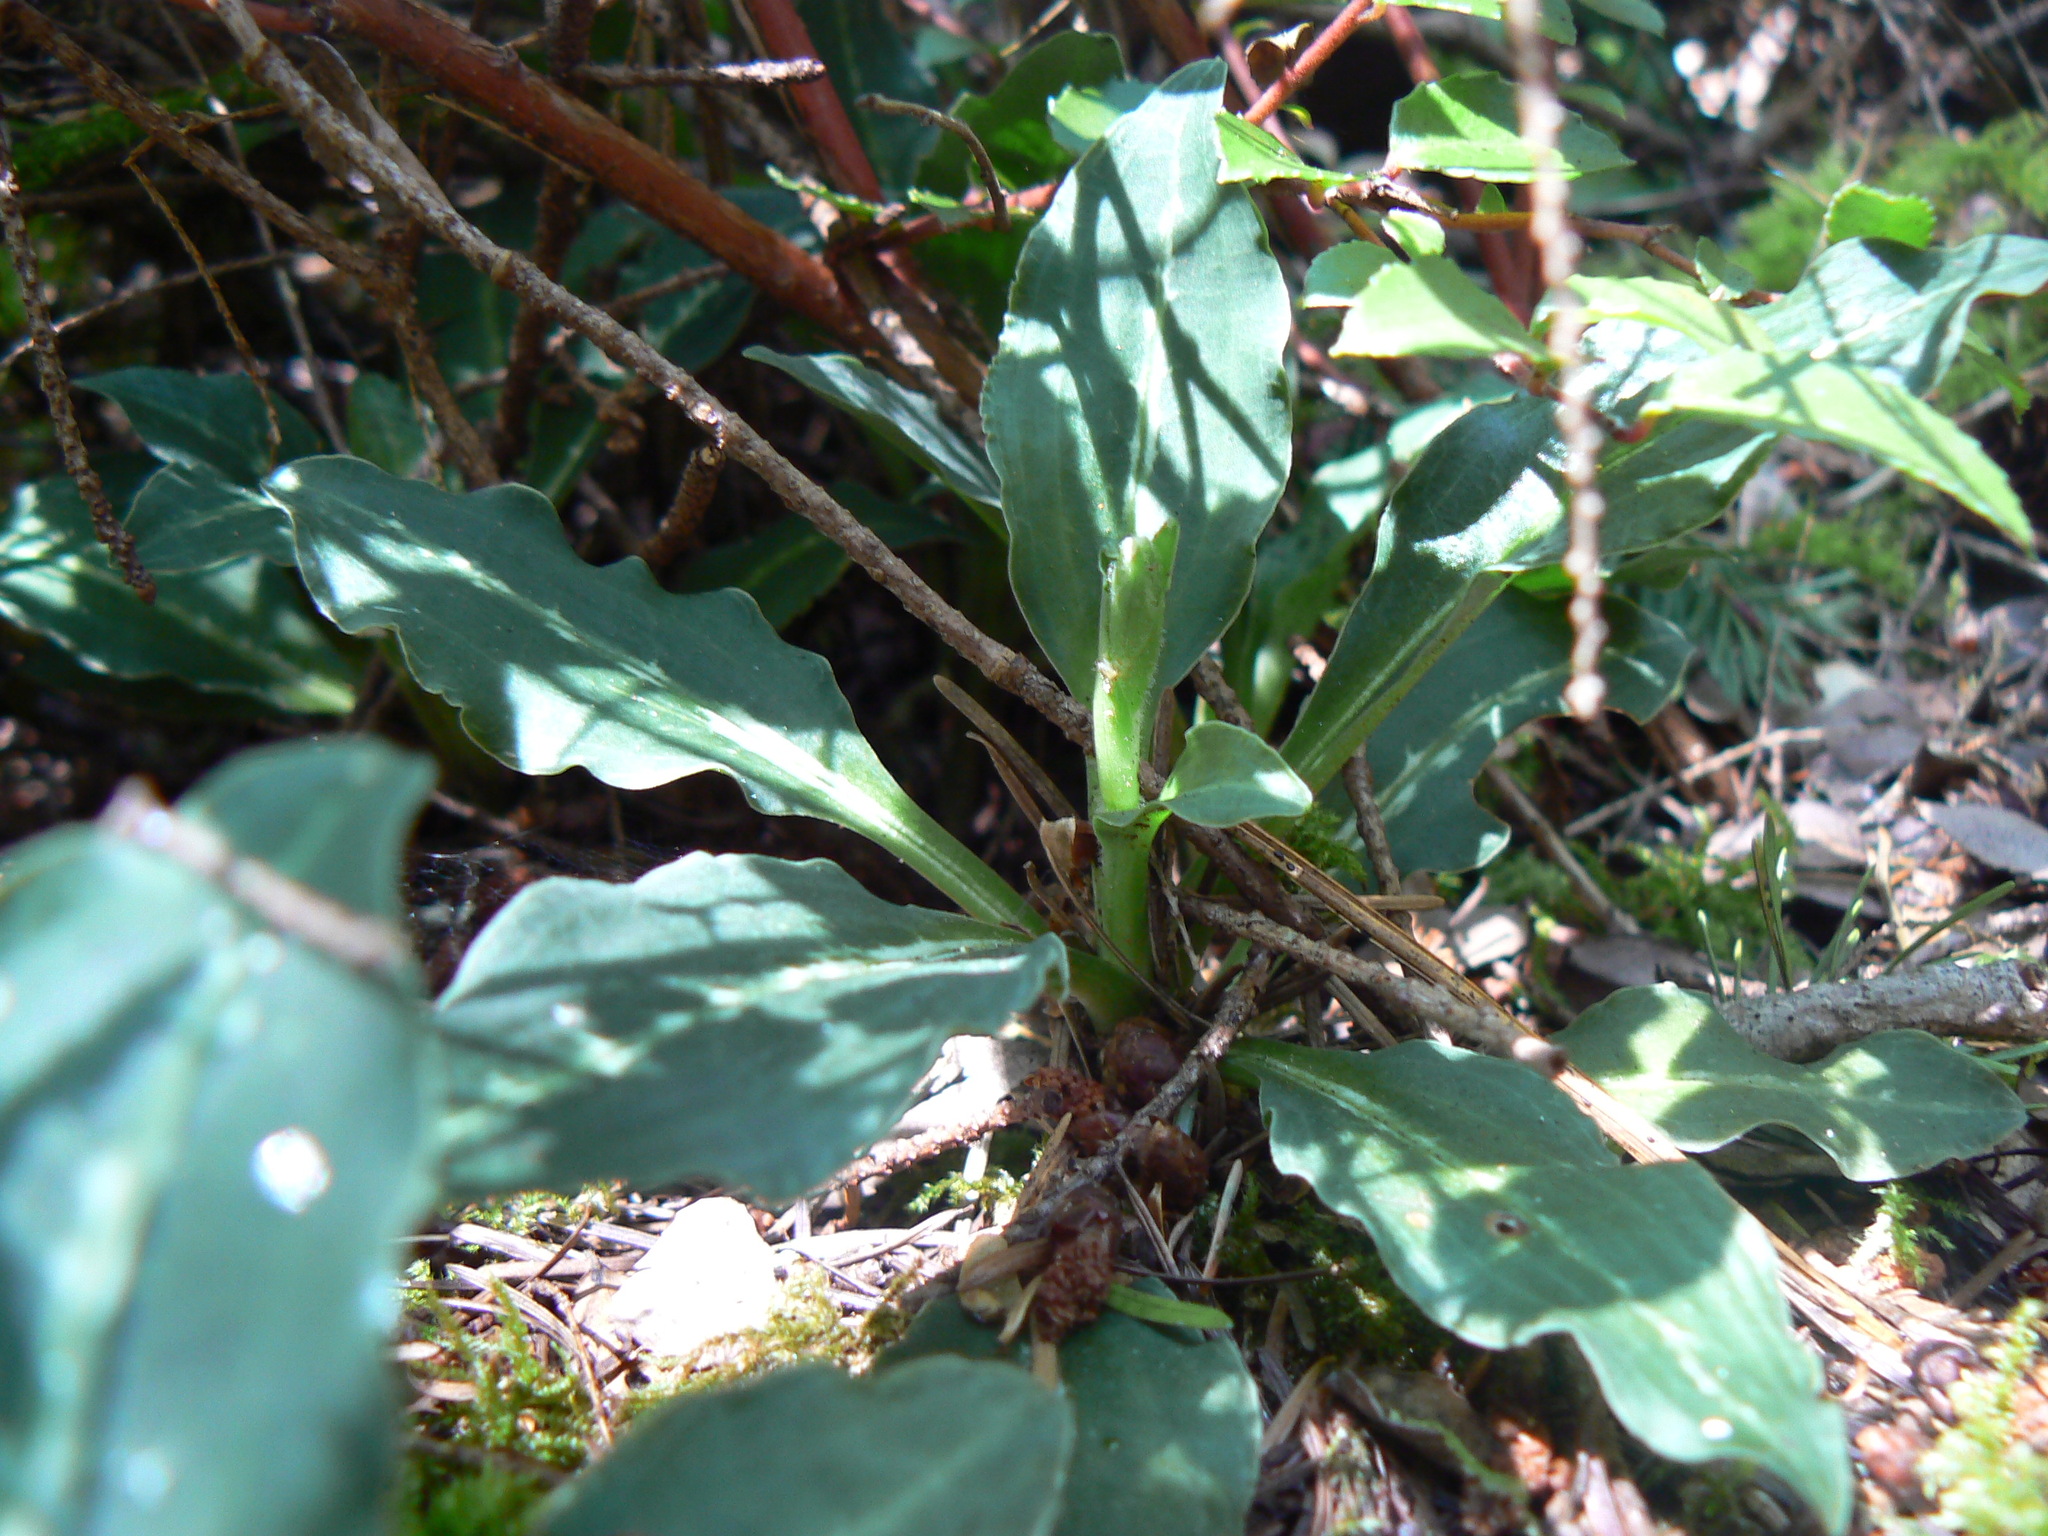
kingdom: Plantae
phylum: Tracheophyta
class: Liliopsida
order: Asparagales
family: Orchidaceae
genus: Goodyera
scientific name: Goodyera oblongifolia
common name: Giant rattlesnake-plantain
